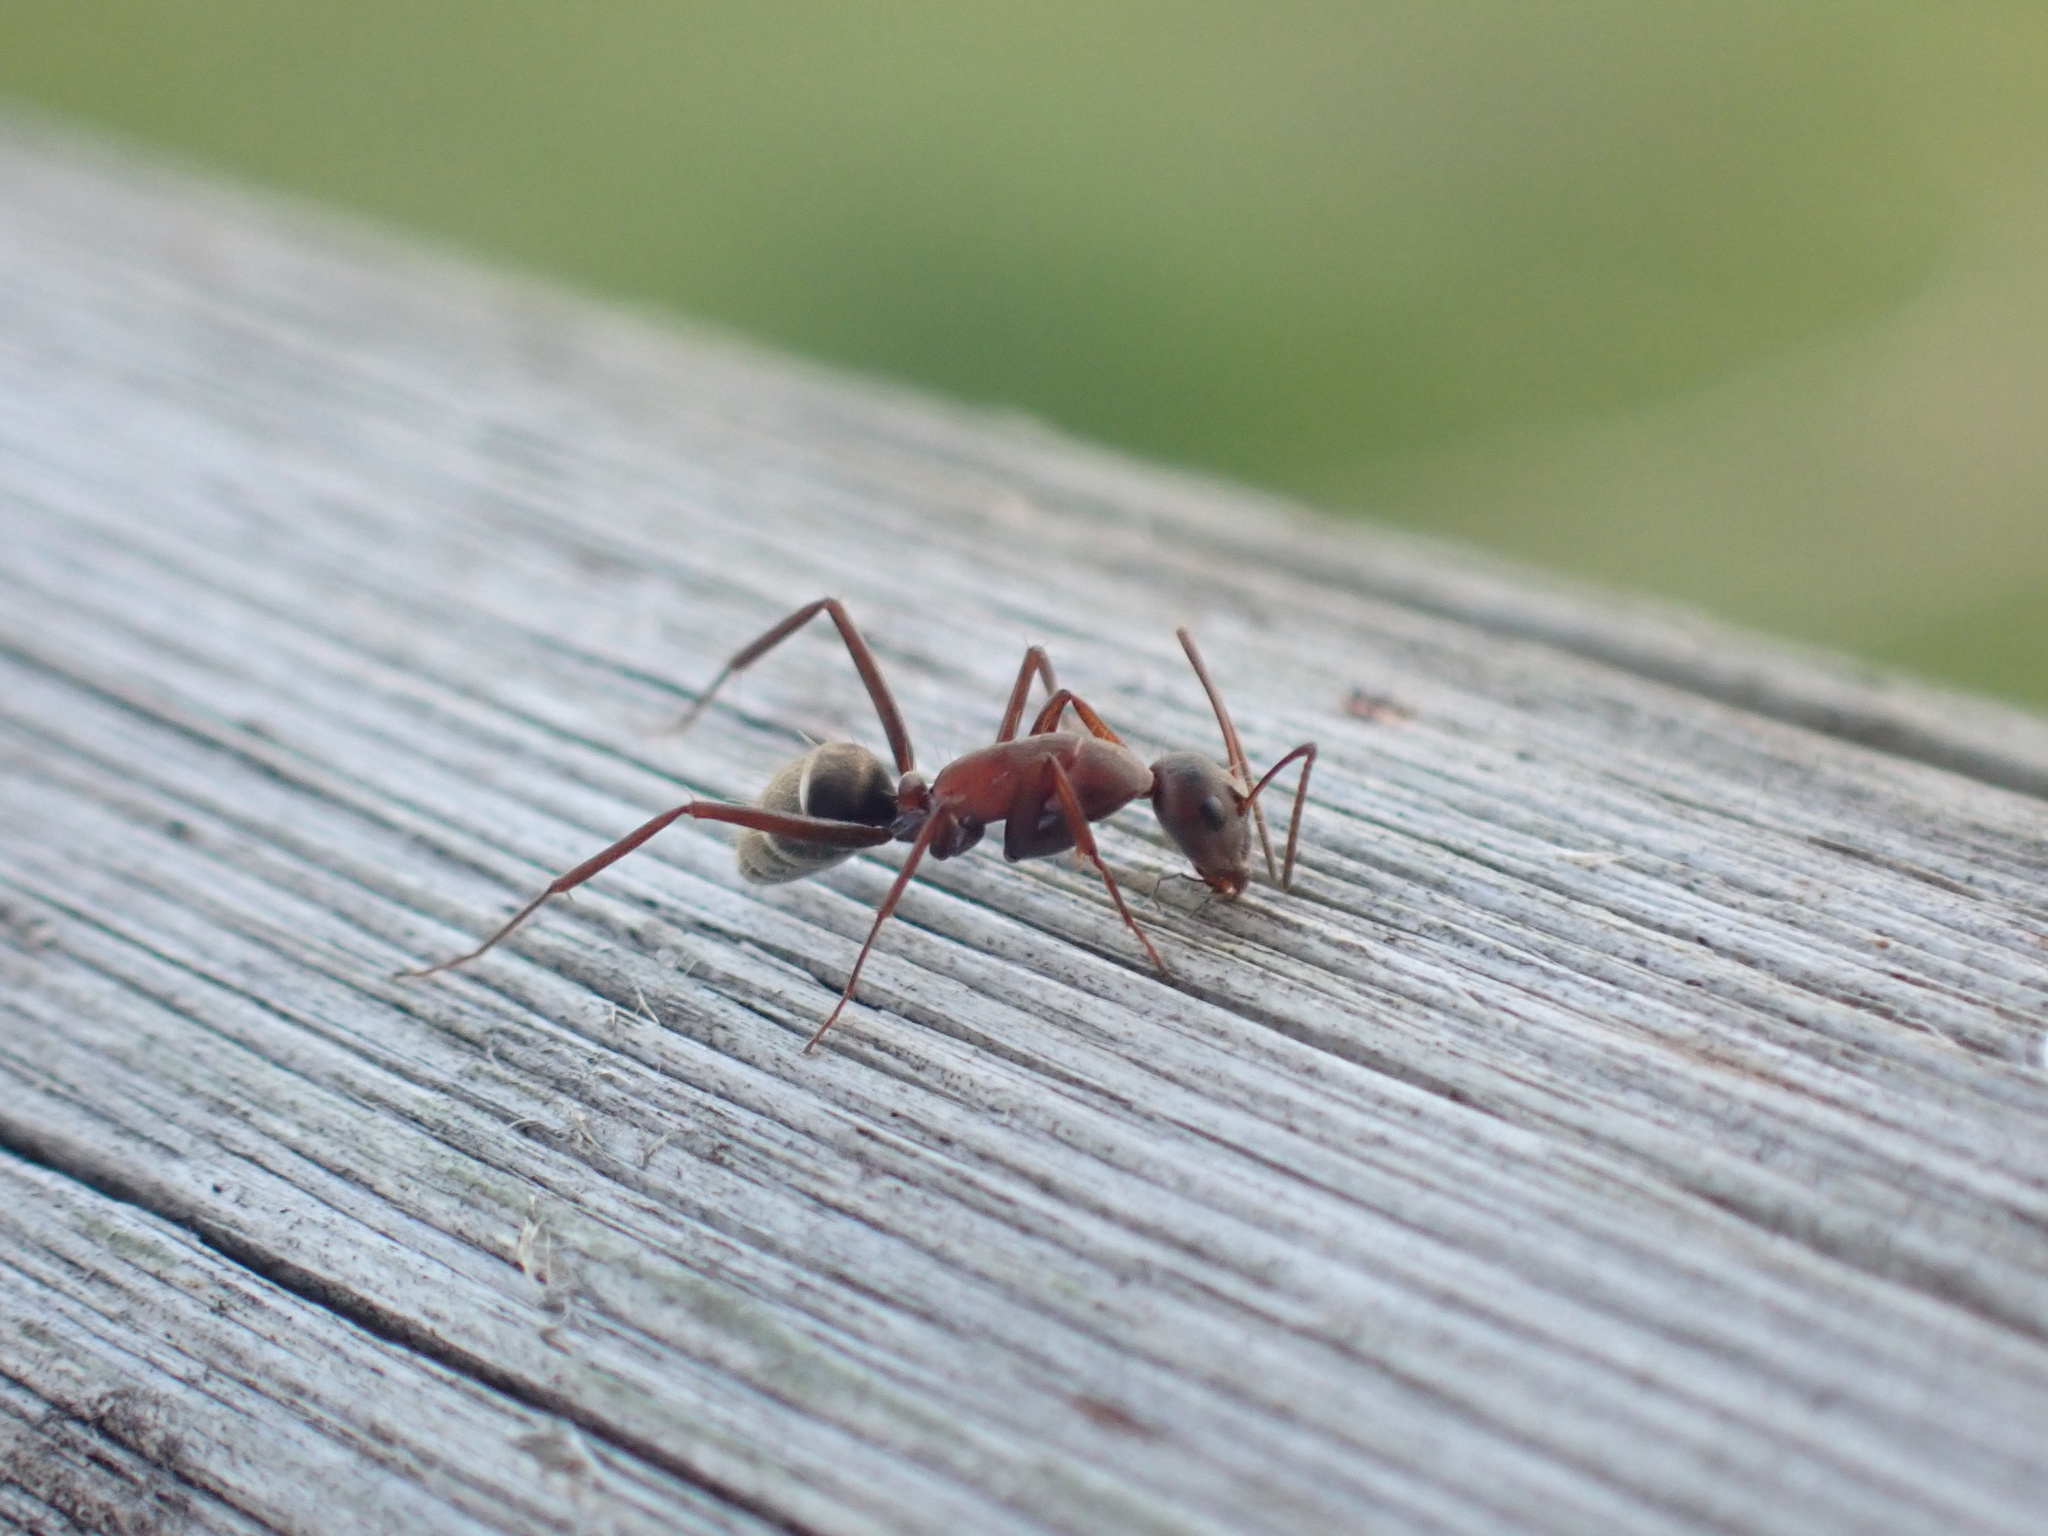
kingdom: Animalia
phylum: Arthropoda
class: Insecta
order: Hymenoptera
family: Formicidae
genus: Camponotus
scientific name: Camponotus vestitus
